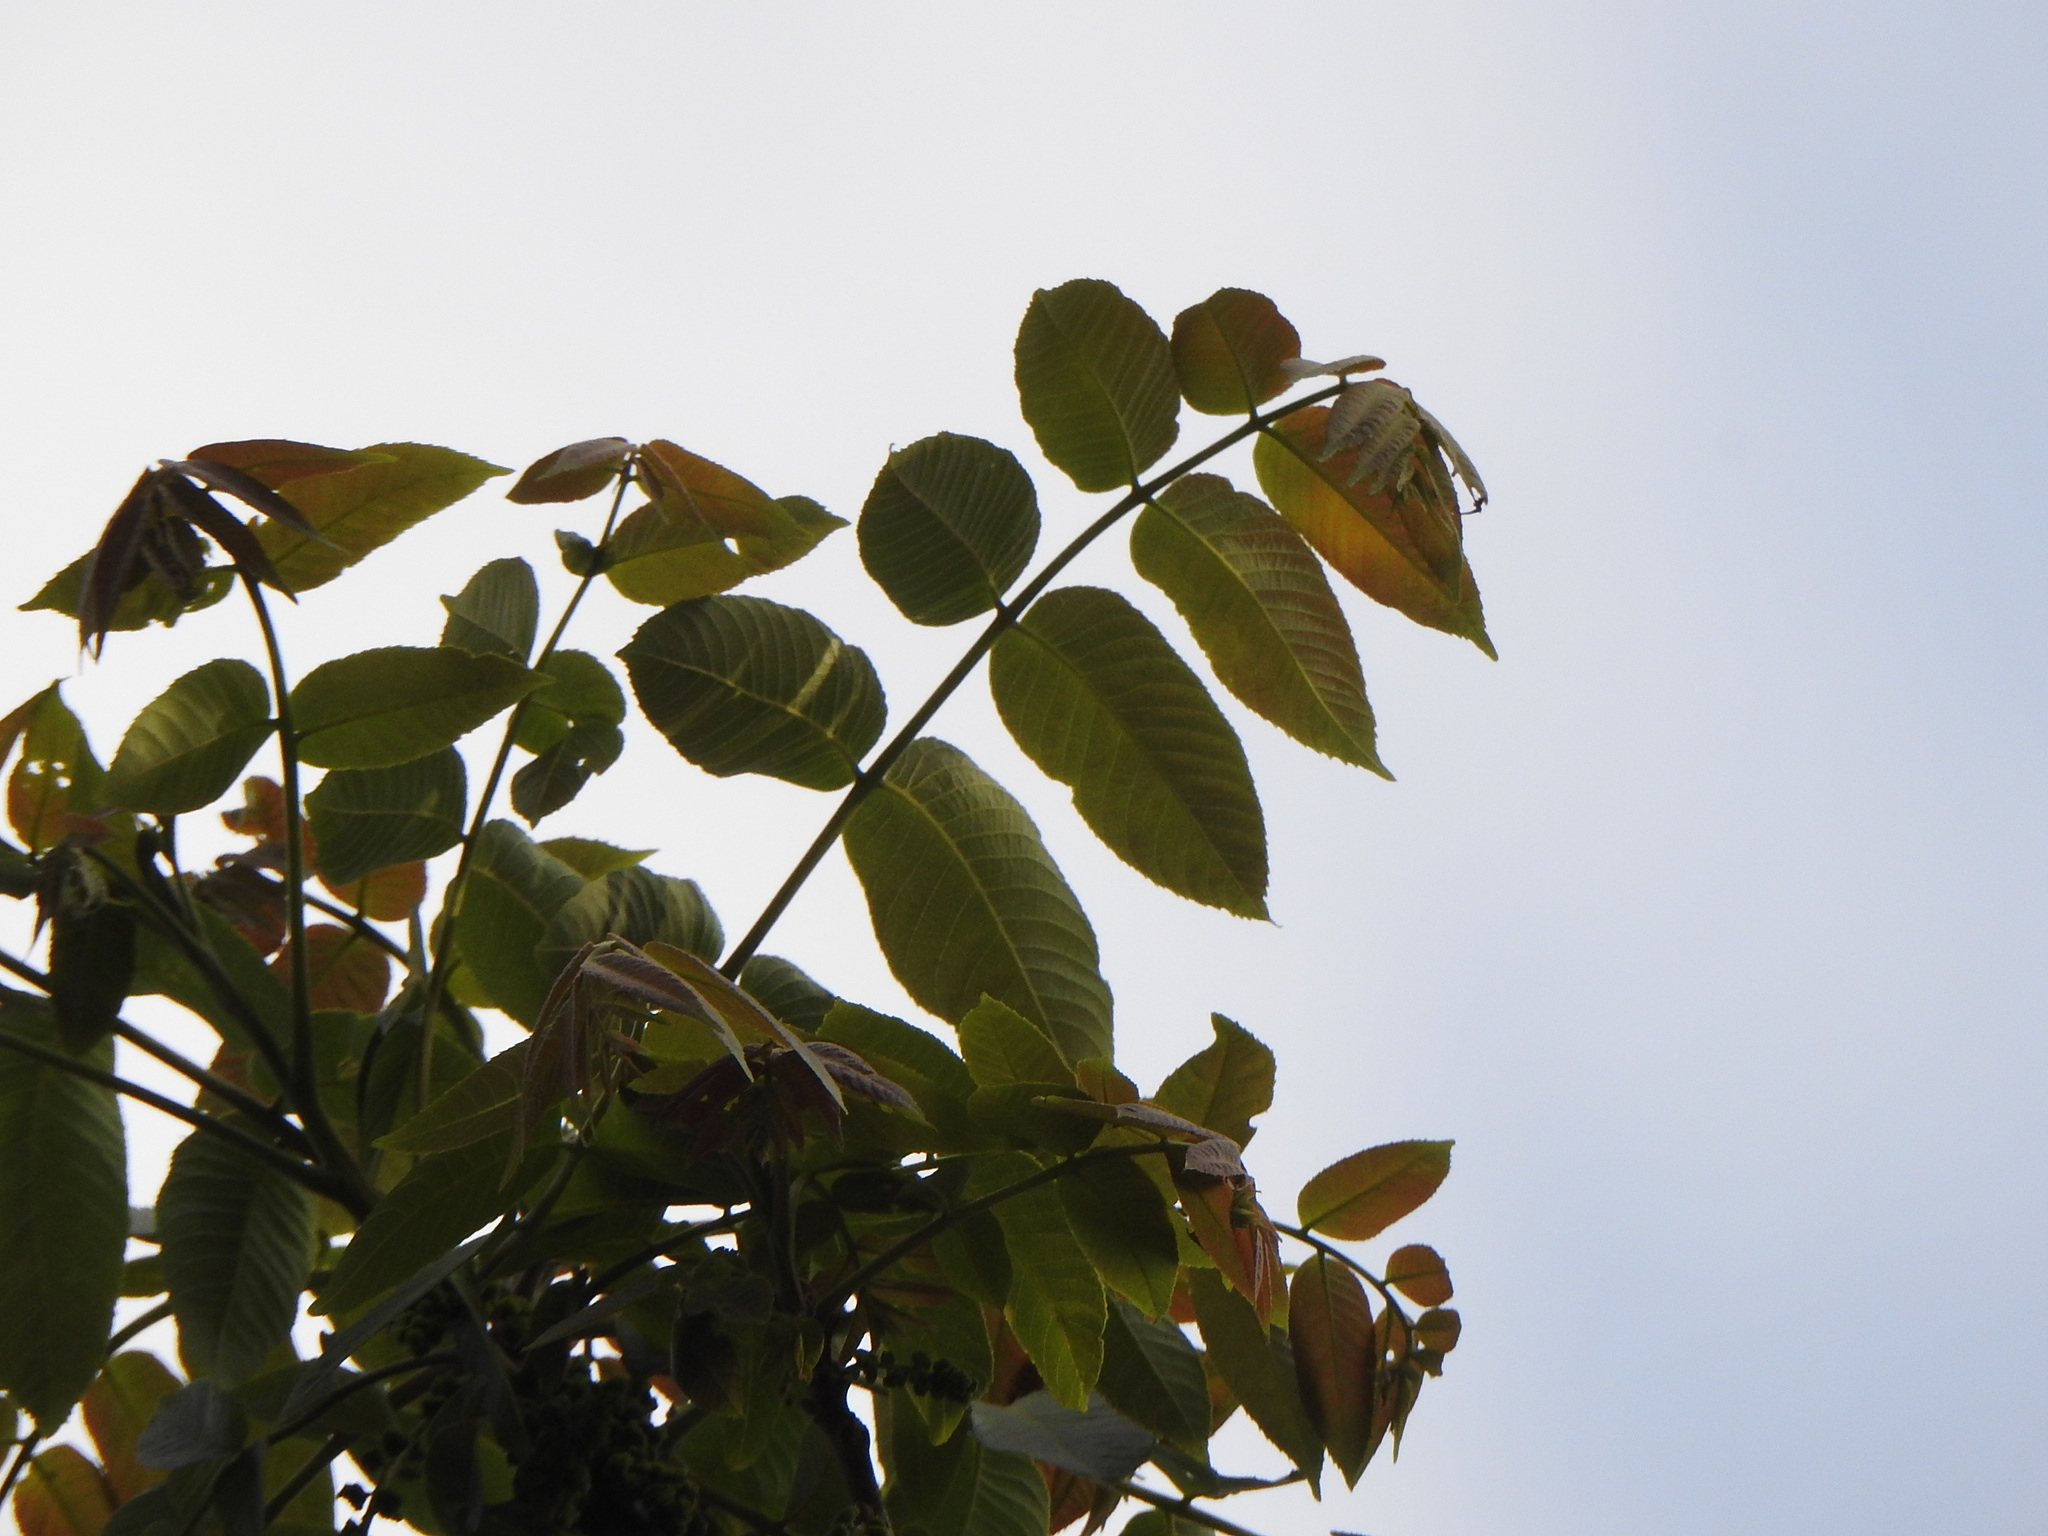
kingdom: Plantae
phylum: Tracheophyta
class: Magnoliopsida
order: Fagales
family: Juglandaceae
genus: Juglans
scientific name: Juglans australis
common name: Argentine walnut
